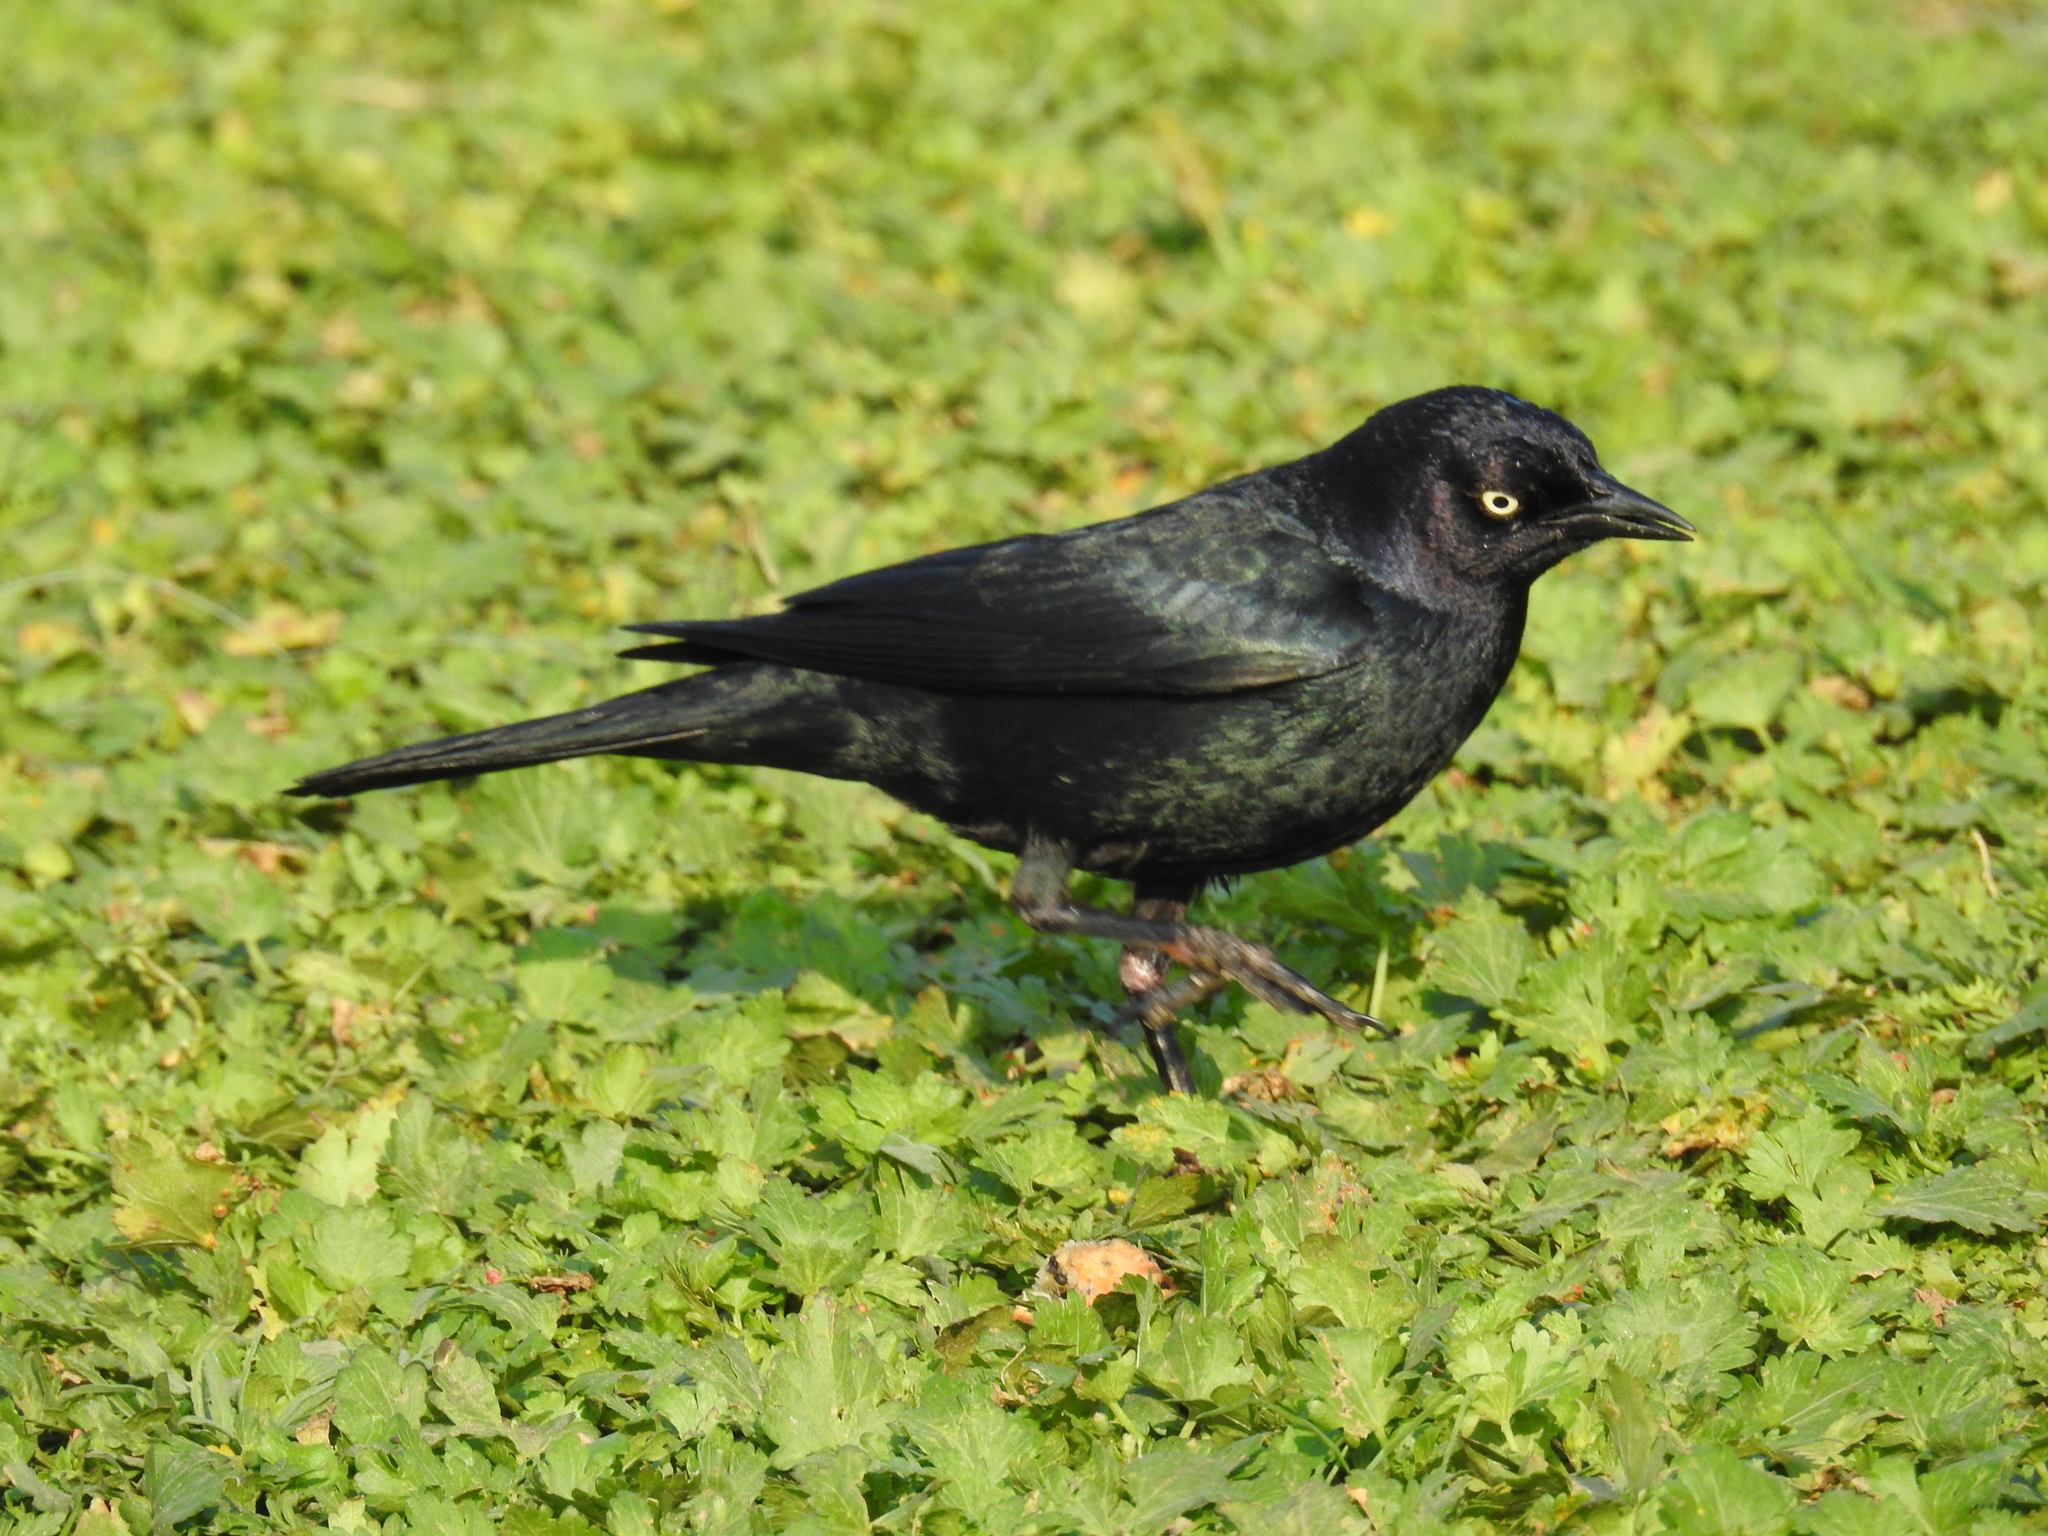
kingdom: Animalia
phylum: Chordata
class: Aves
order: Passeriformes
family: Icteridae
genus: Euphagus
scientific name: Euphagus cyanocephalus
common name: Brewer's blackbird
